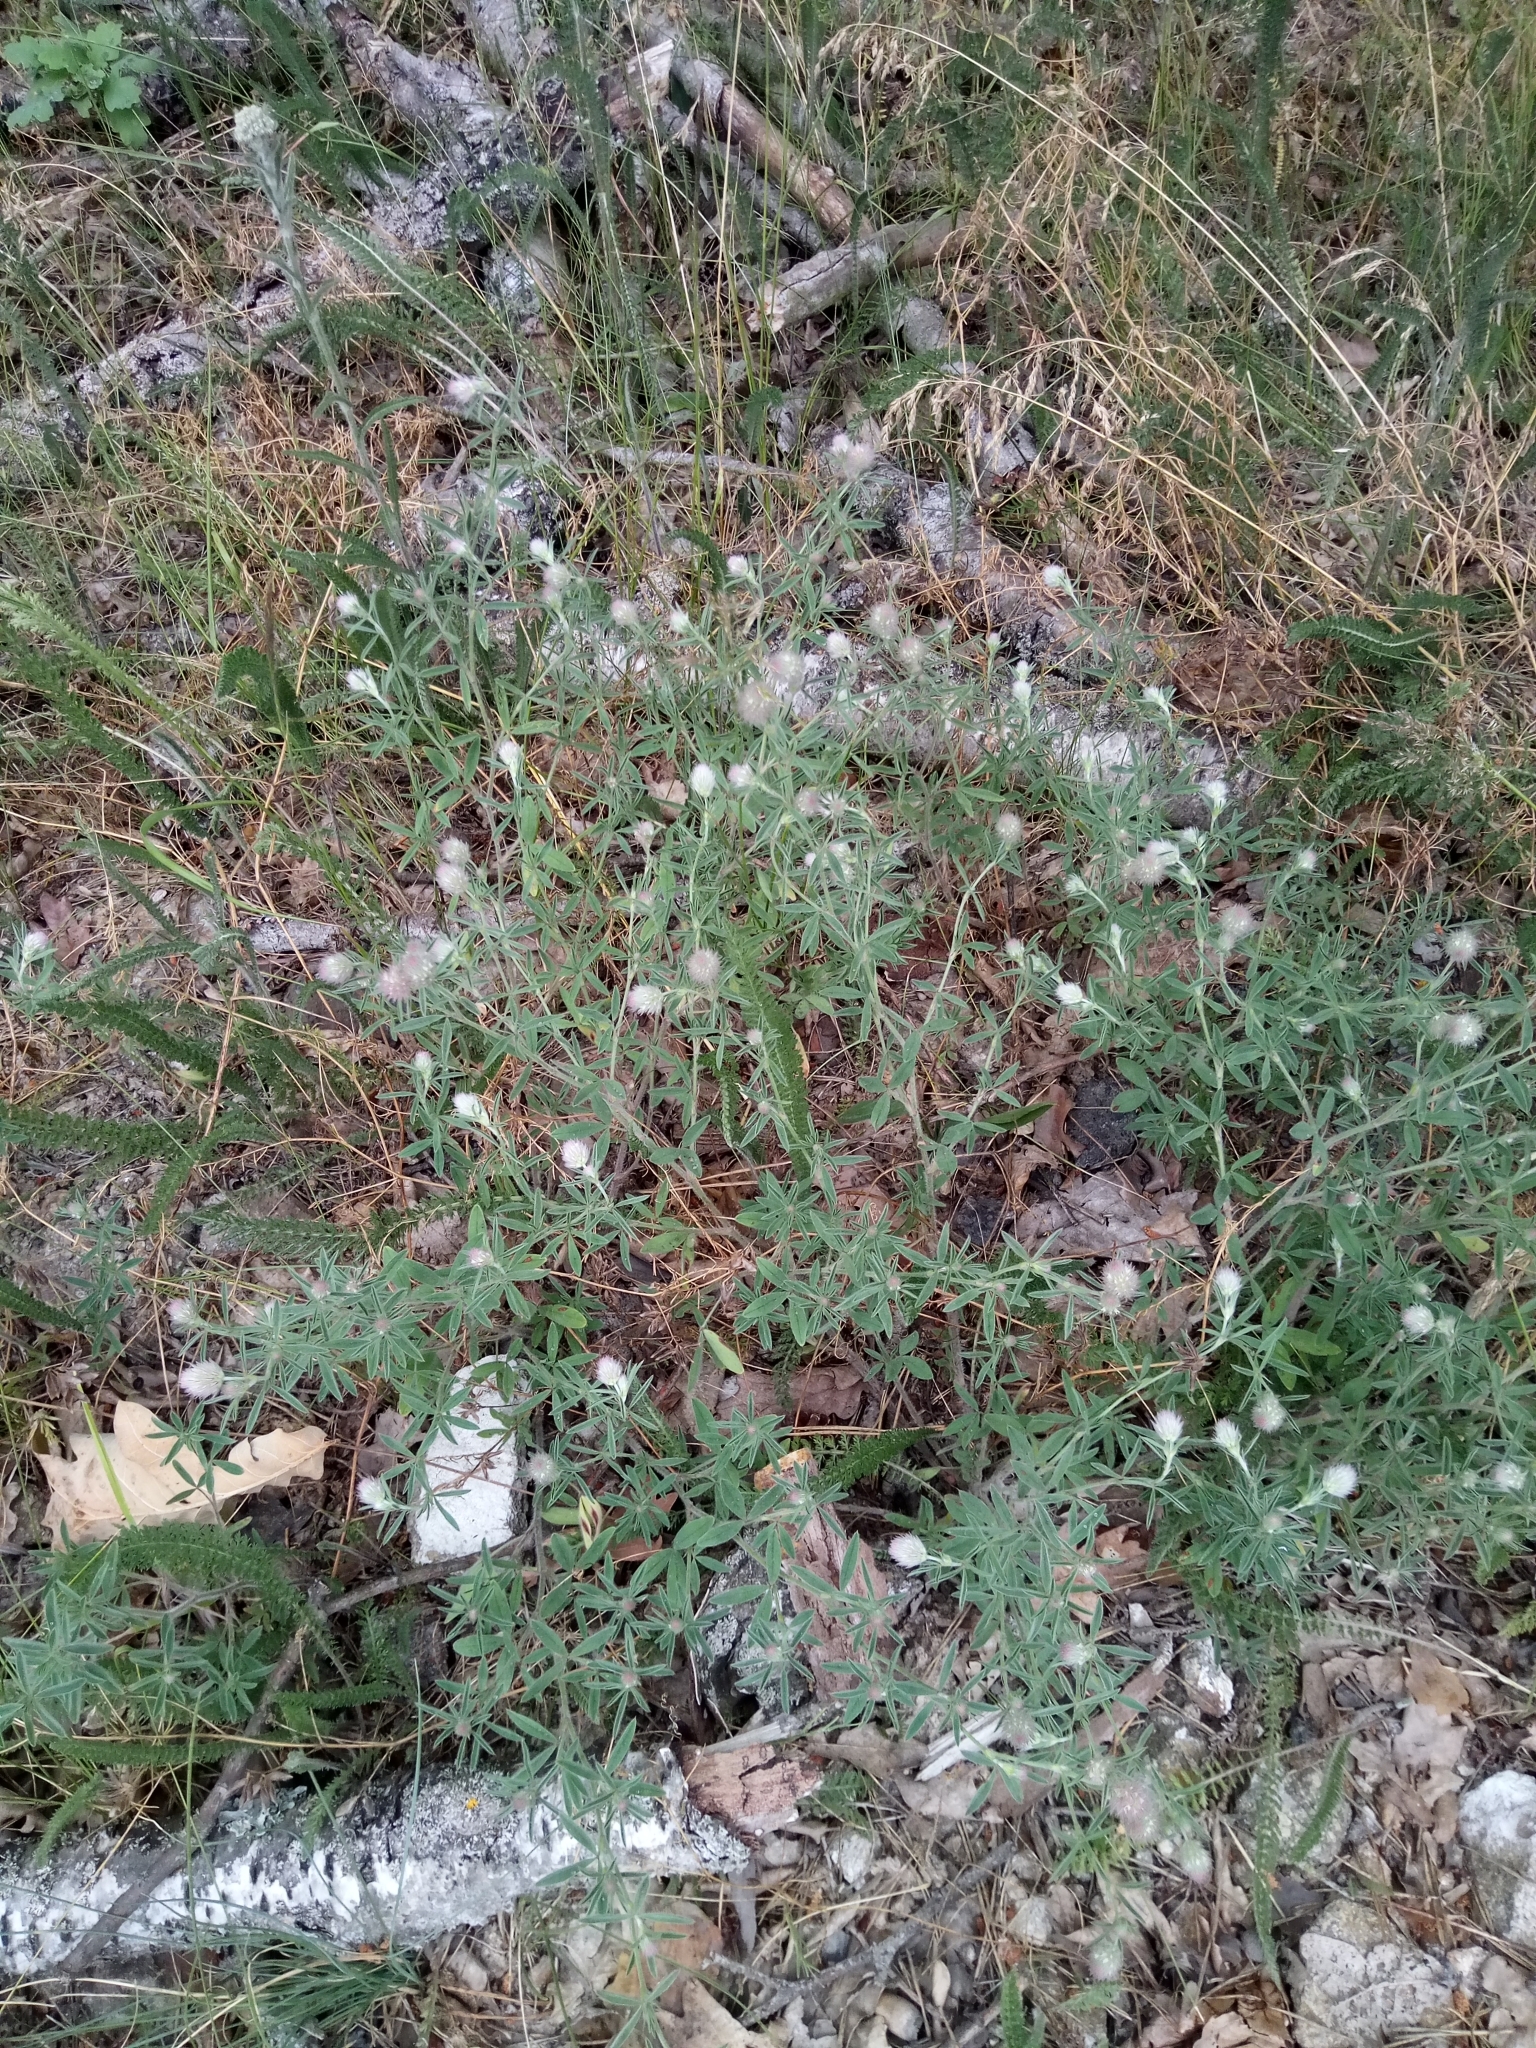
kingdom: Plantae
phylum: Tracheophyta
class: Magnoliopsida
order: Fabales
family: Fabaceae
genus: Trifolium
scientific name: Trifolium arvense
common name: Hare's-foot clover
